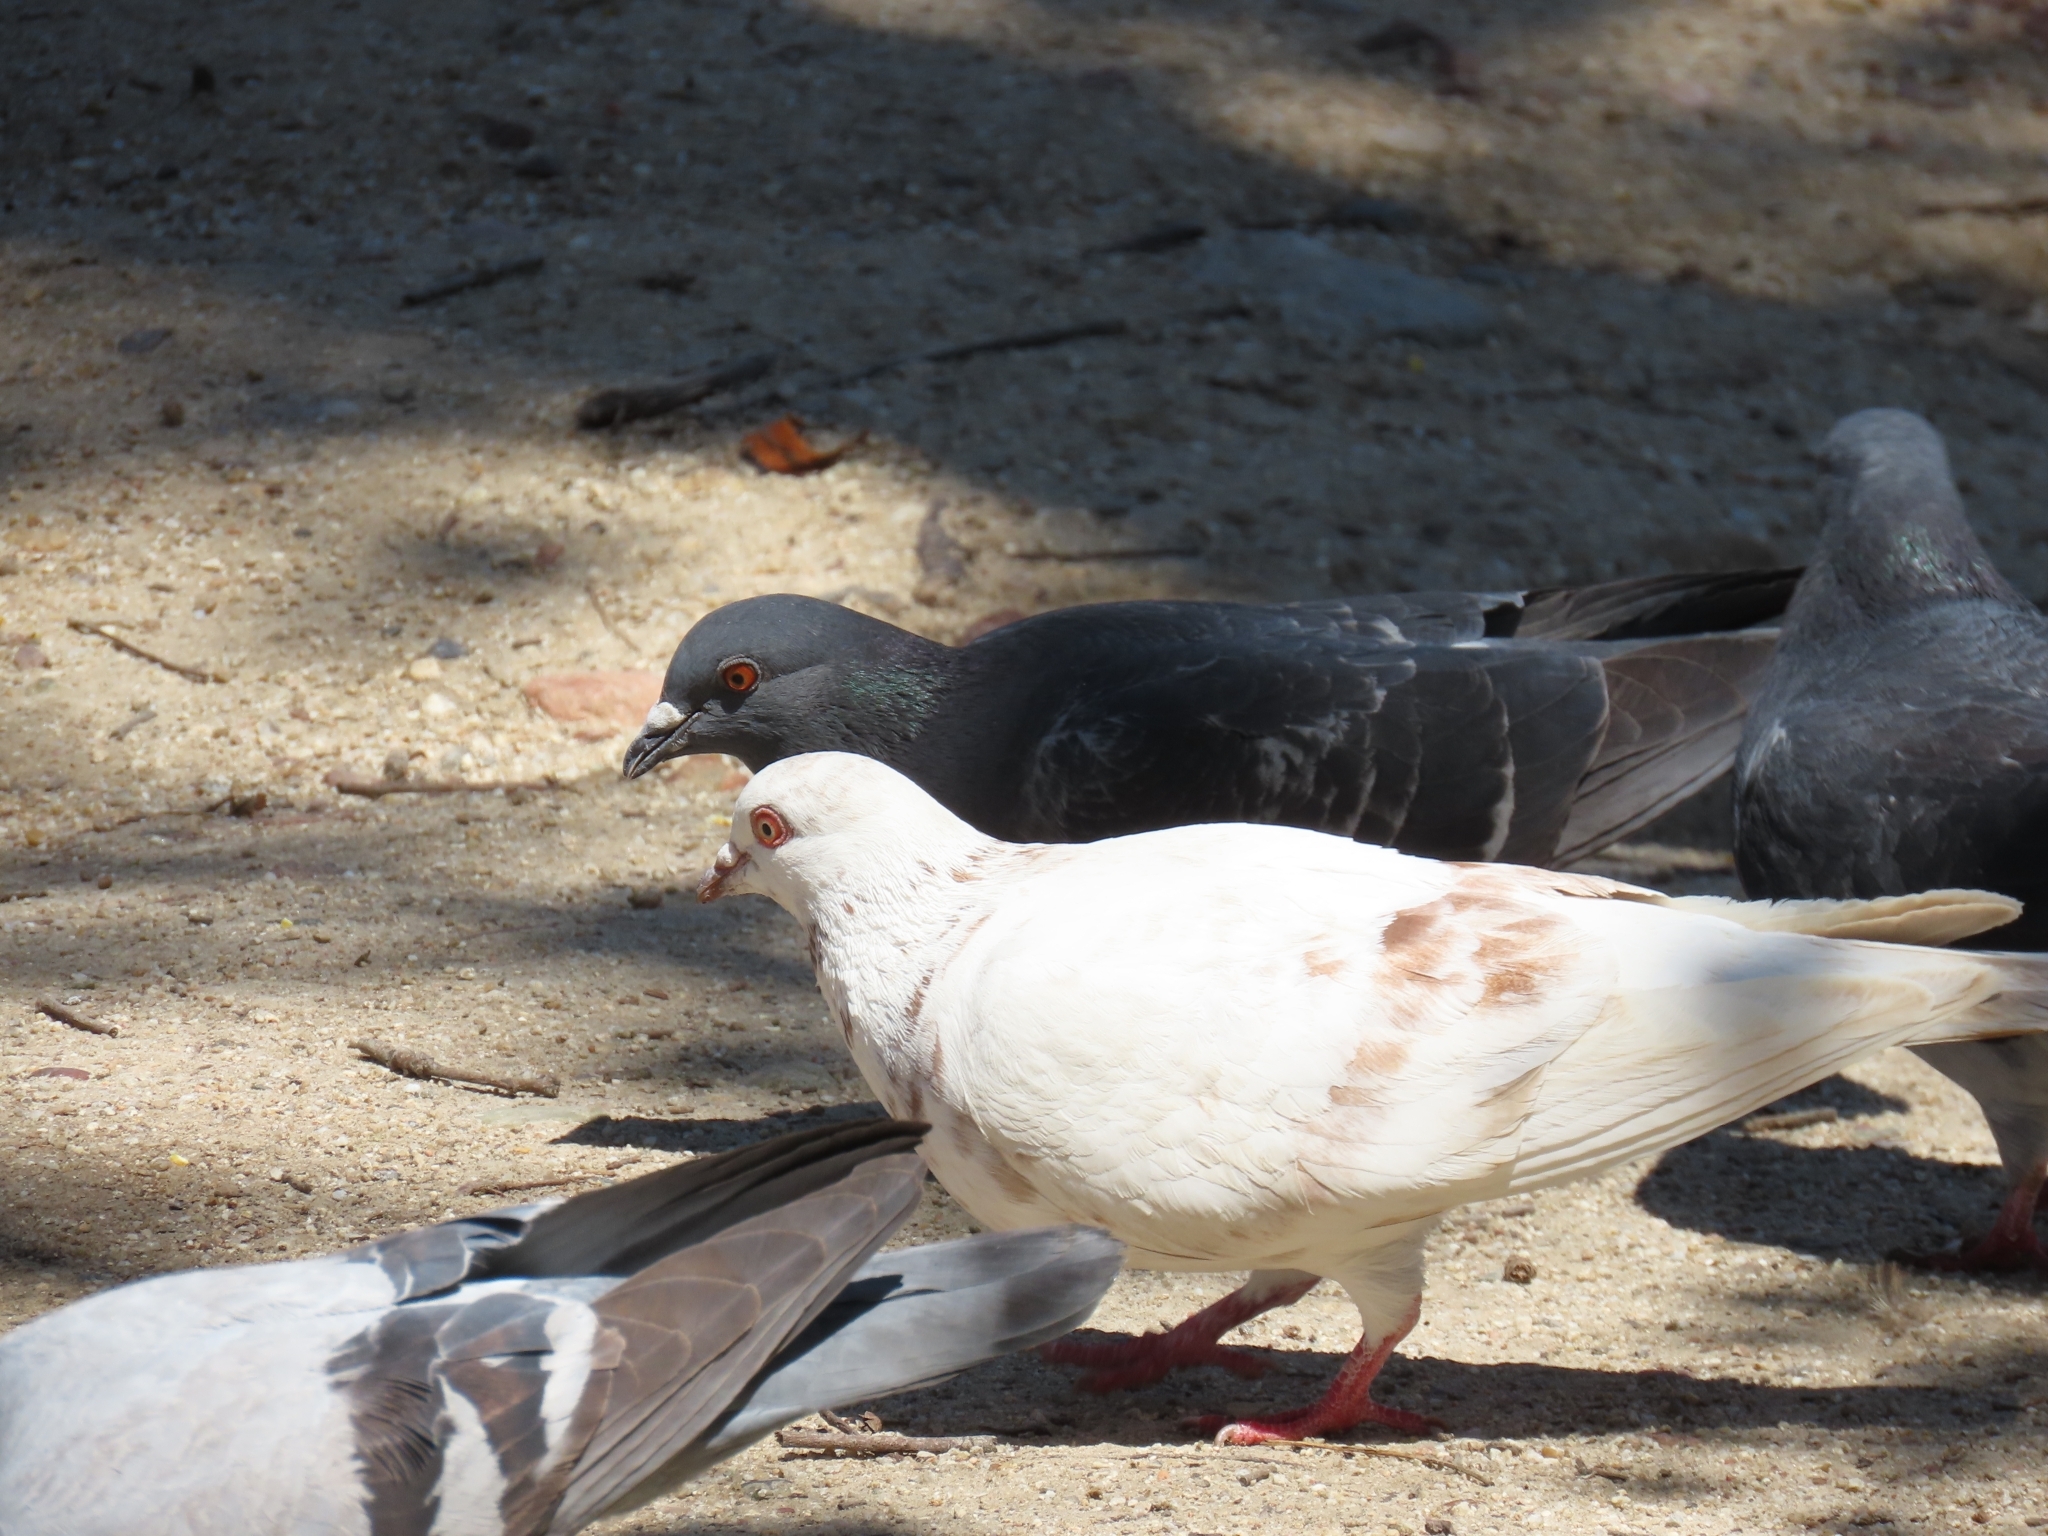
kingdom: Animalia
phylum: Chordata
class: Aves
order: Columbiformes
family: Columbidae
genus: Columba
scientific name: Columba livia
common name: Rock pigeon
